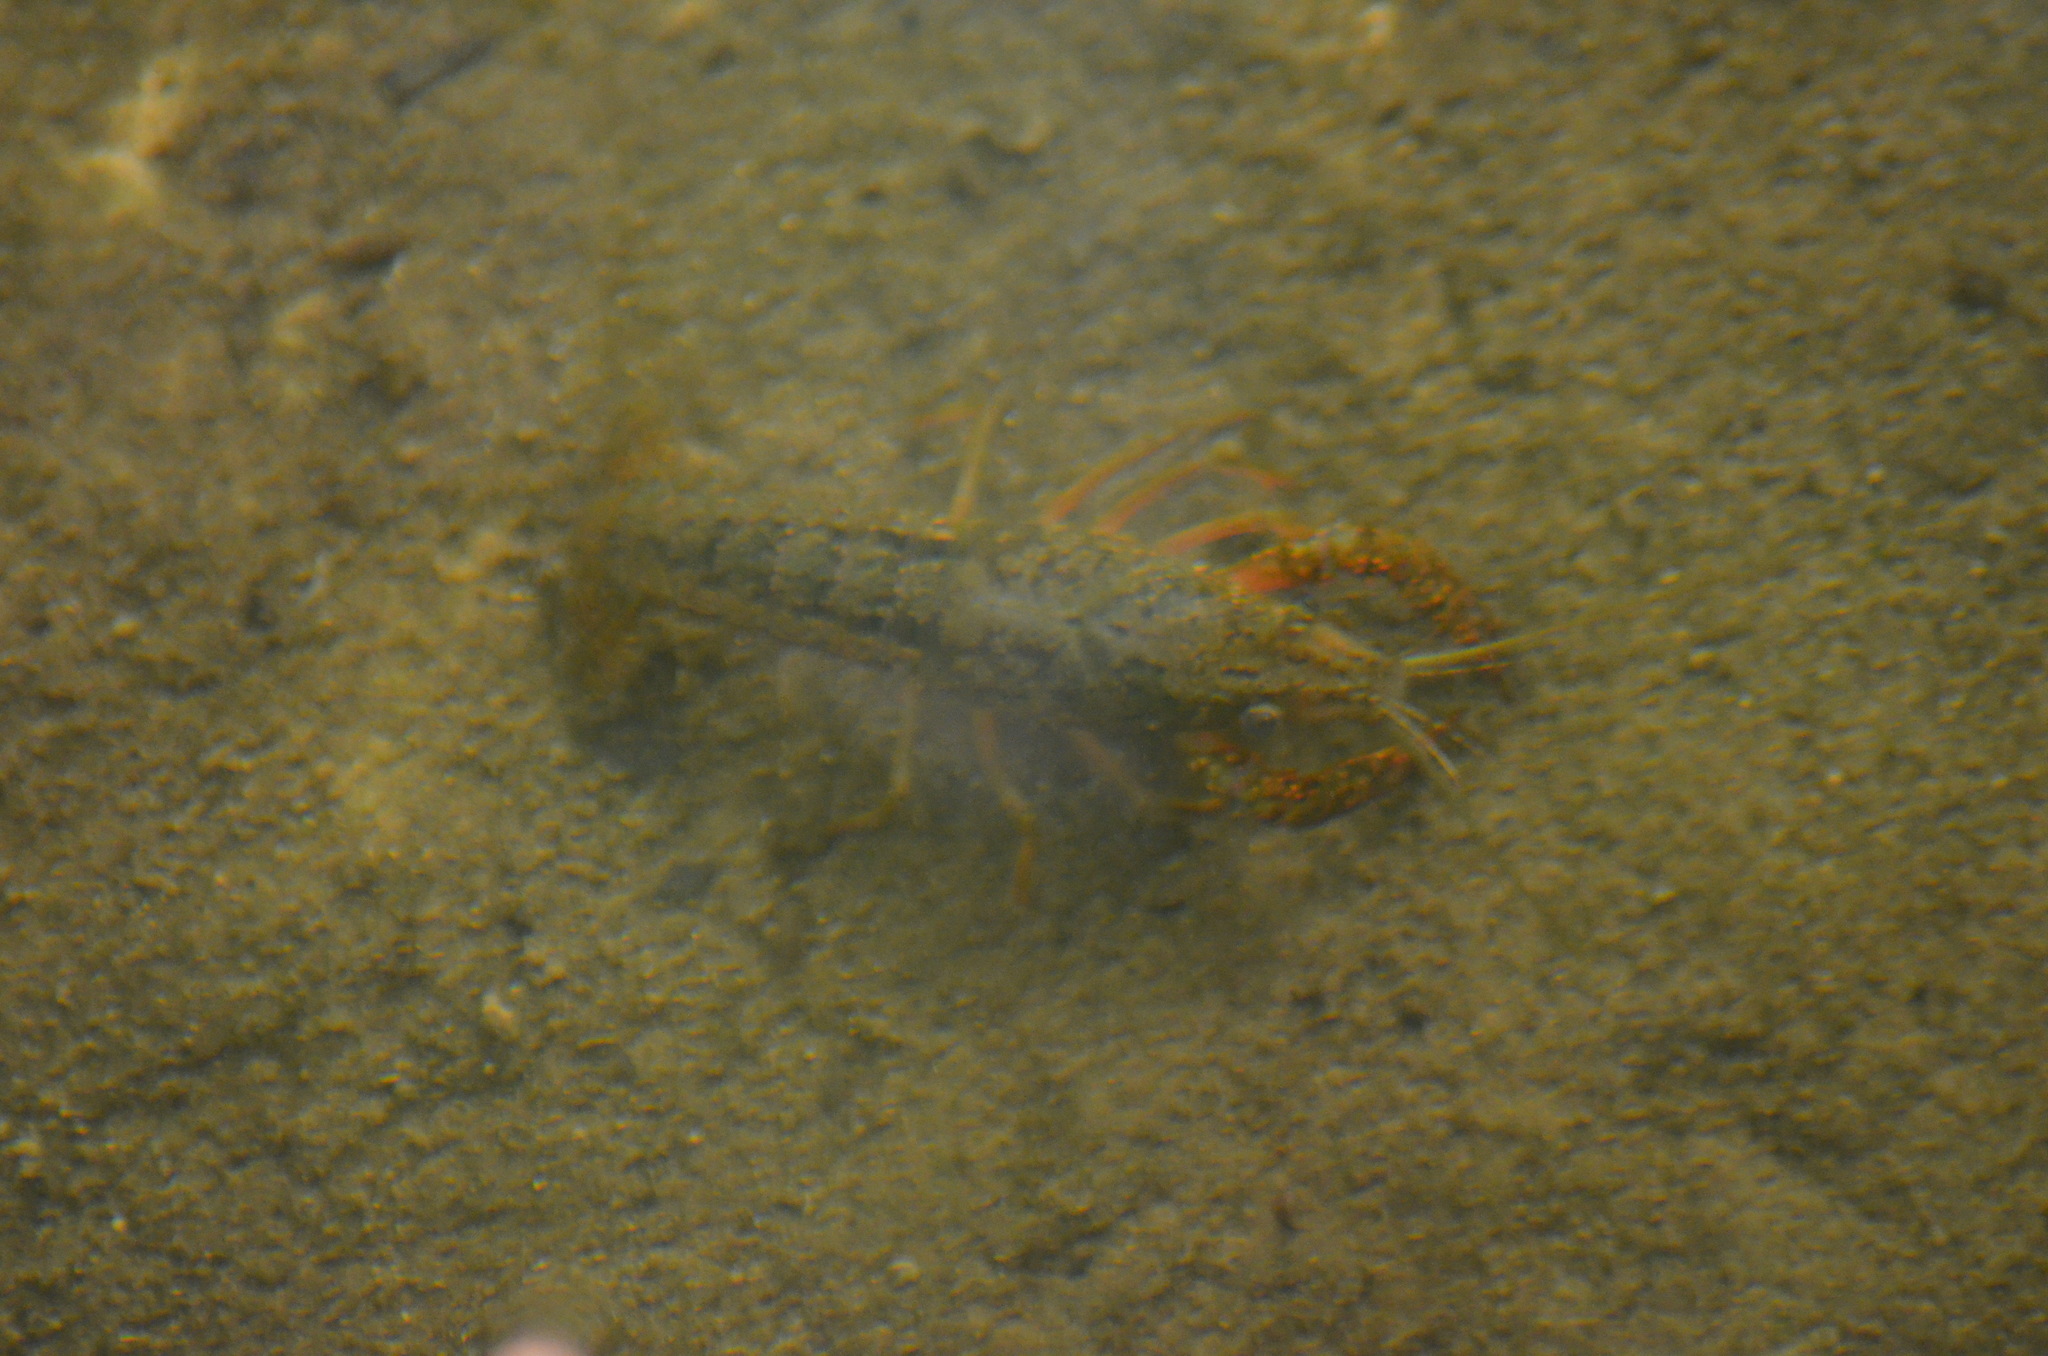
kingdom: Animalia
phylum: Arthropoda
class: Malacostraca
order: Decapoda
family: Cambaridae
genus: Procambarus
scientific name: Procambarus clarkii
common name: Red swamp crayfish
